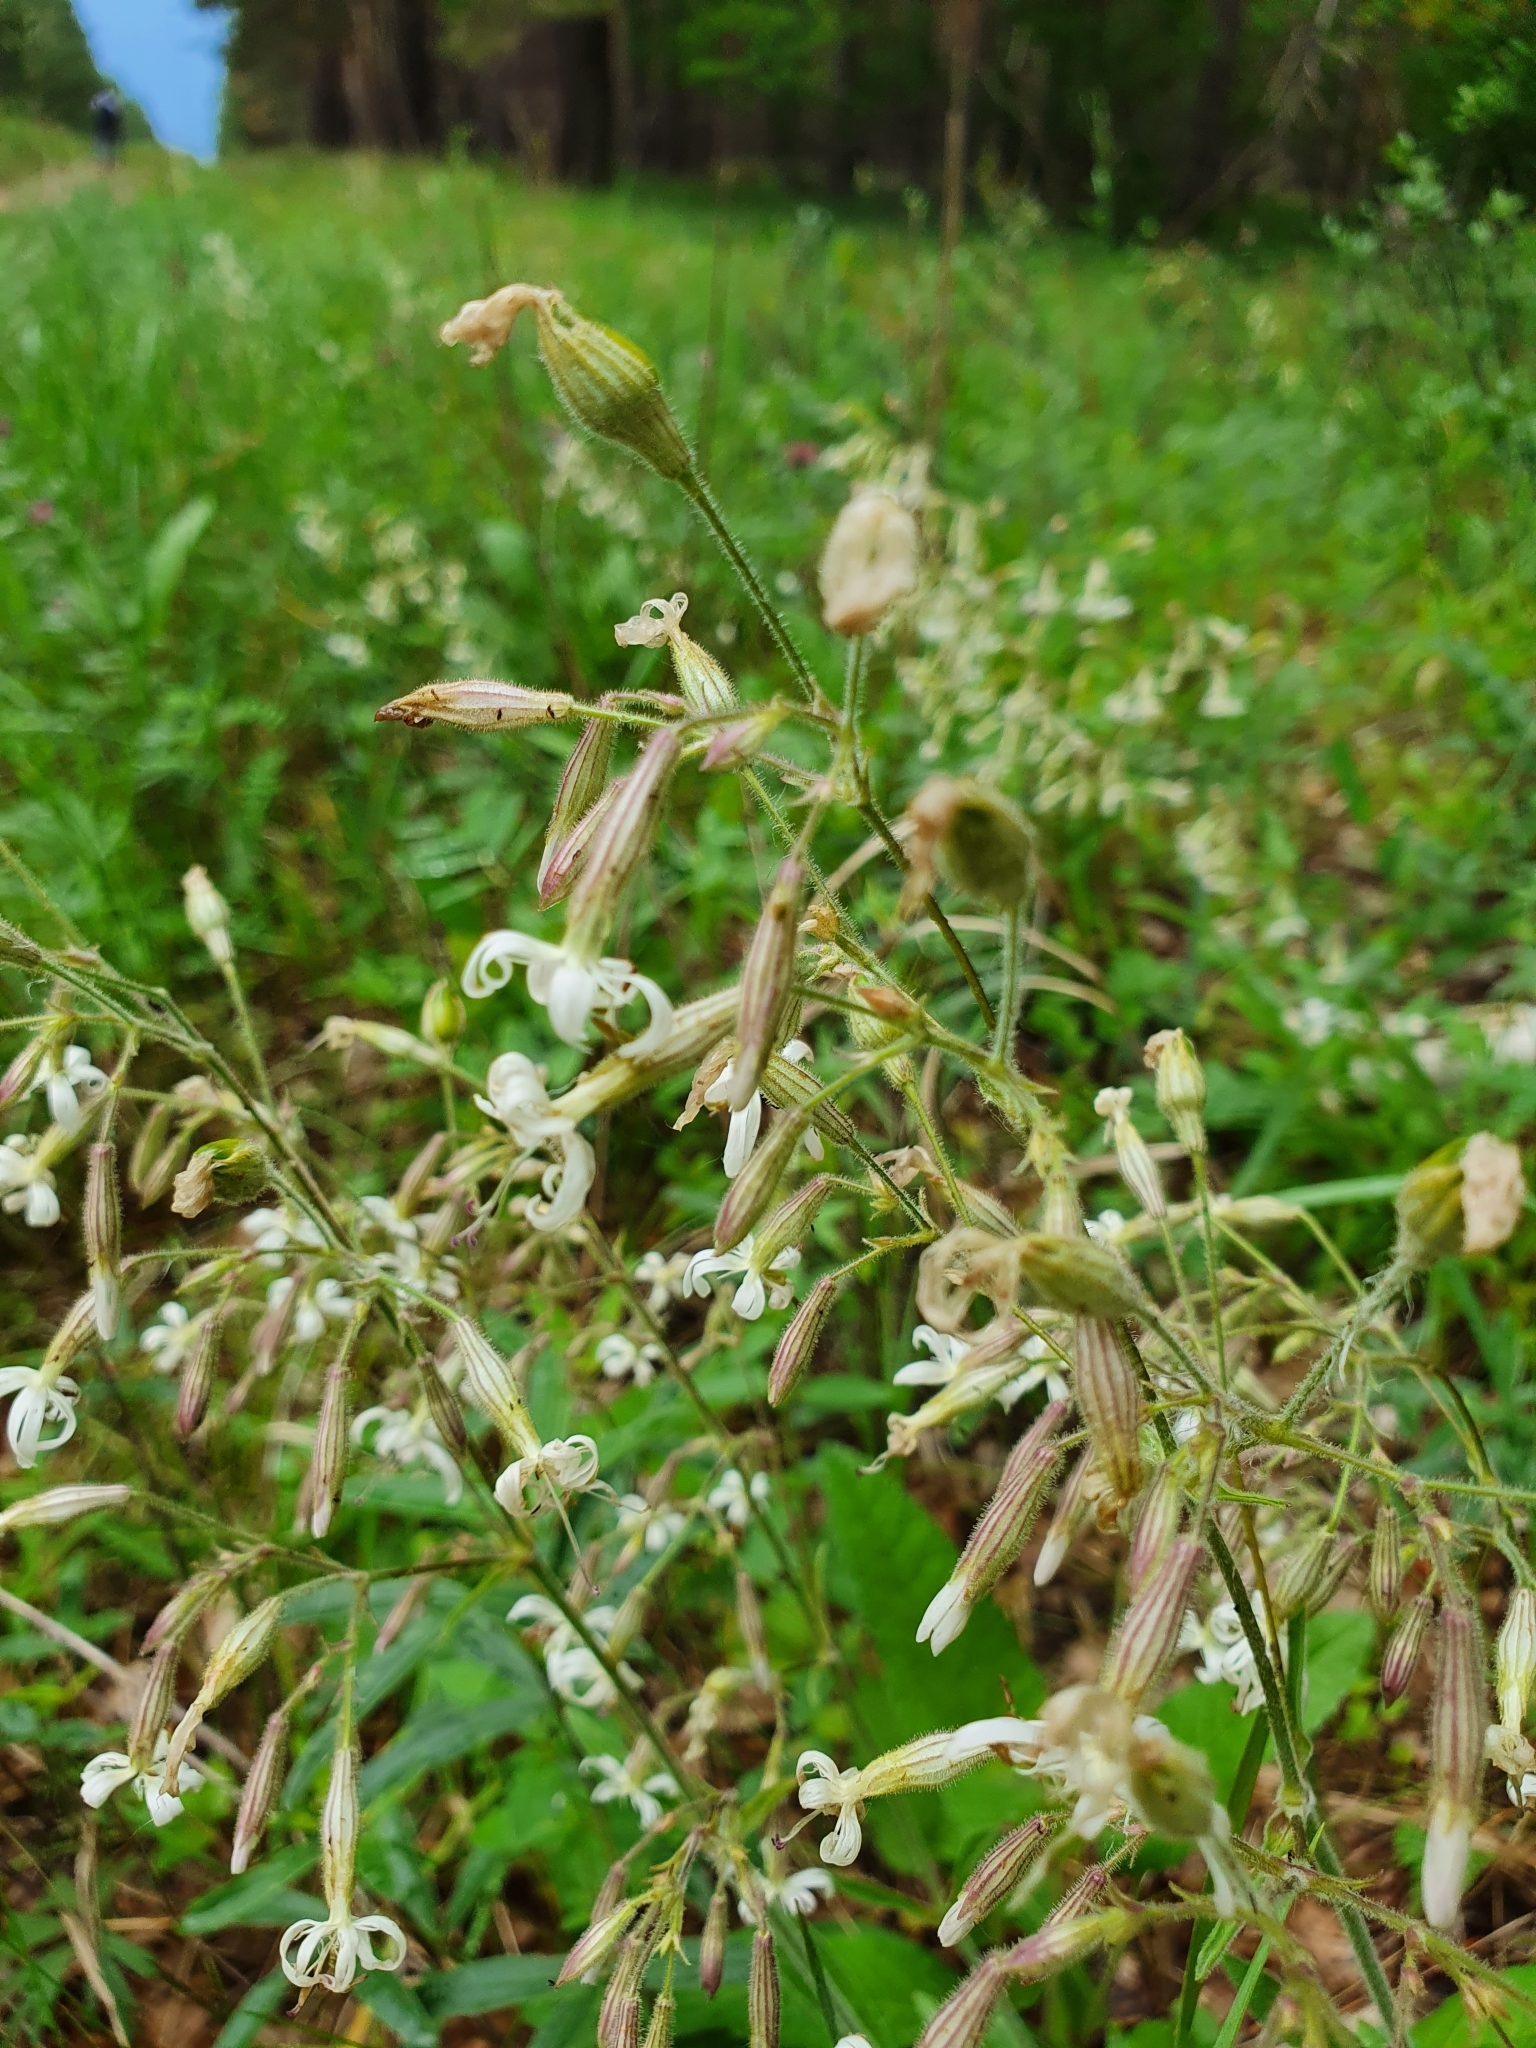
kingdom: Plantae
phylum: Tracheophyta
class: Magnoliopsida
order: Caryophyllales
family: Caryophyllaceae
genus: Silene
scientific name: Silene nutans
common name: Nottingham catchfly
